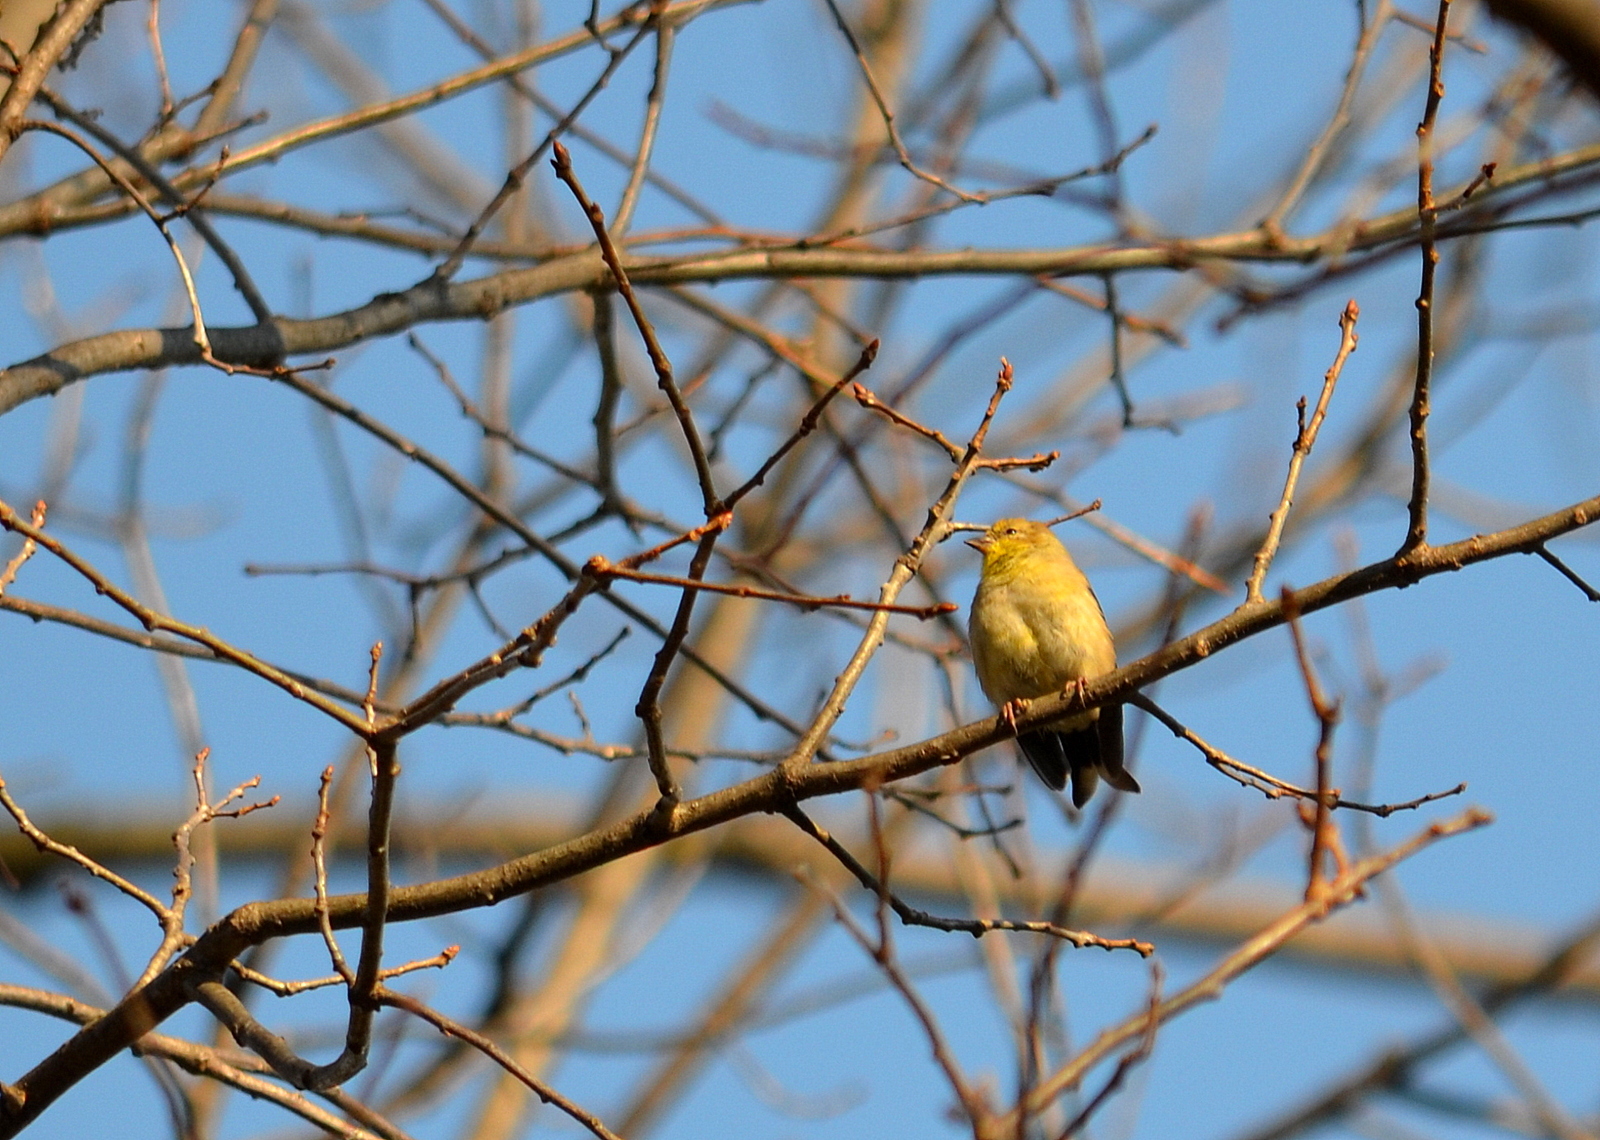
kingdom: Animalia
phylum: Chordata
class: Aves
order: Passeriformes
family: Fringillidae
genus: Spinus
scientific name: Spinus tristis
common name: American goldfinch
